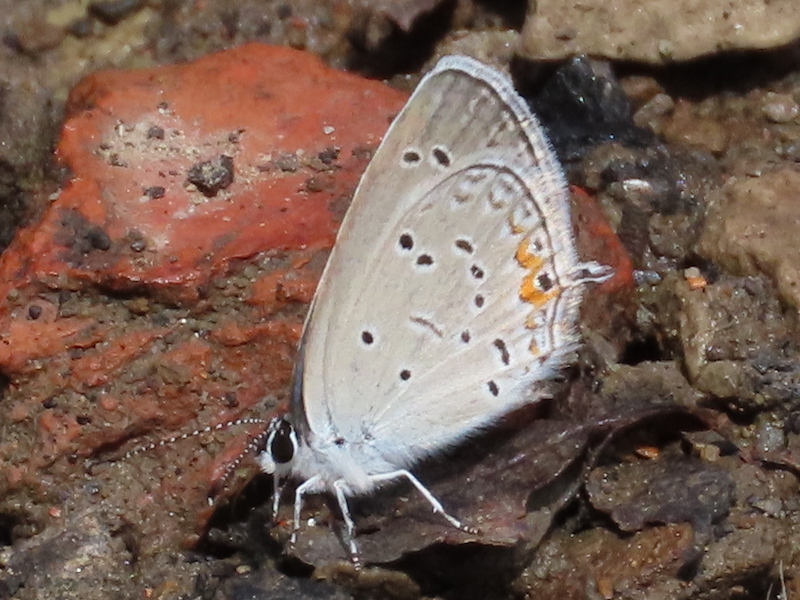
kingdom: Animalia
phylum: Arthropoda
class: Insecta
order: Lepidoptera
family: Lycaenidae
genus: Elkalyce
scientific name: Elkalyce comyntas
